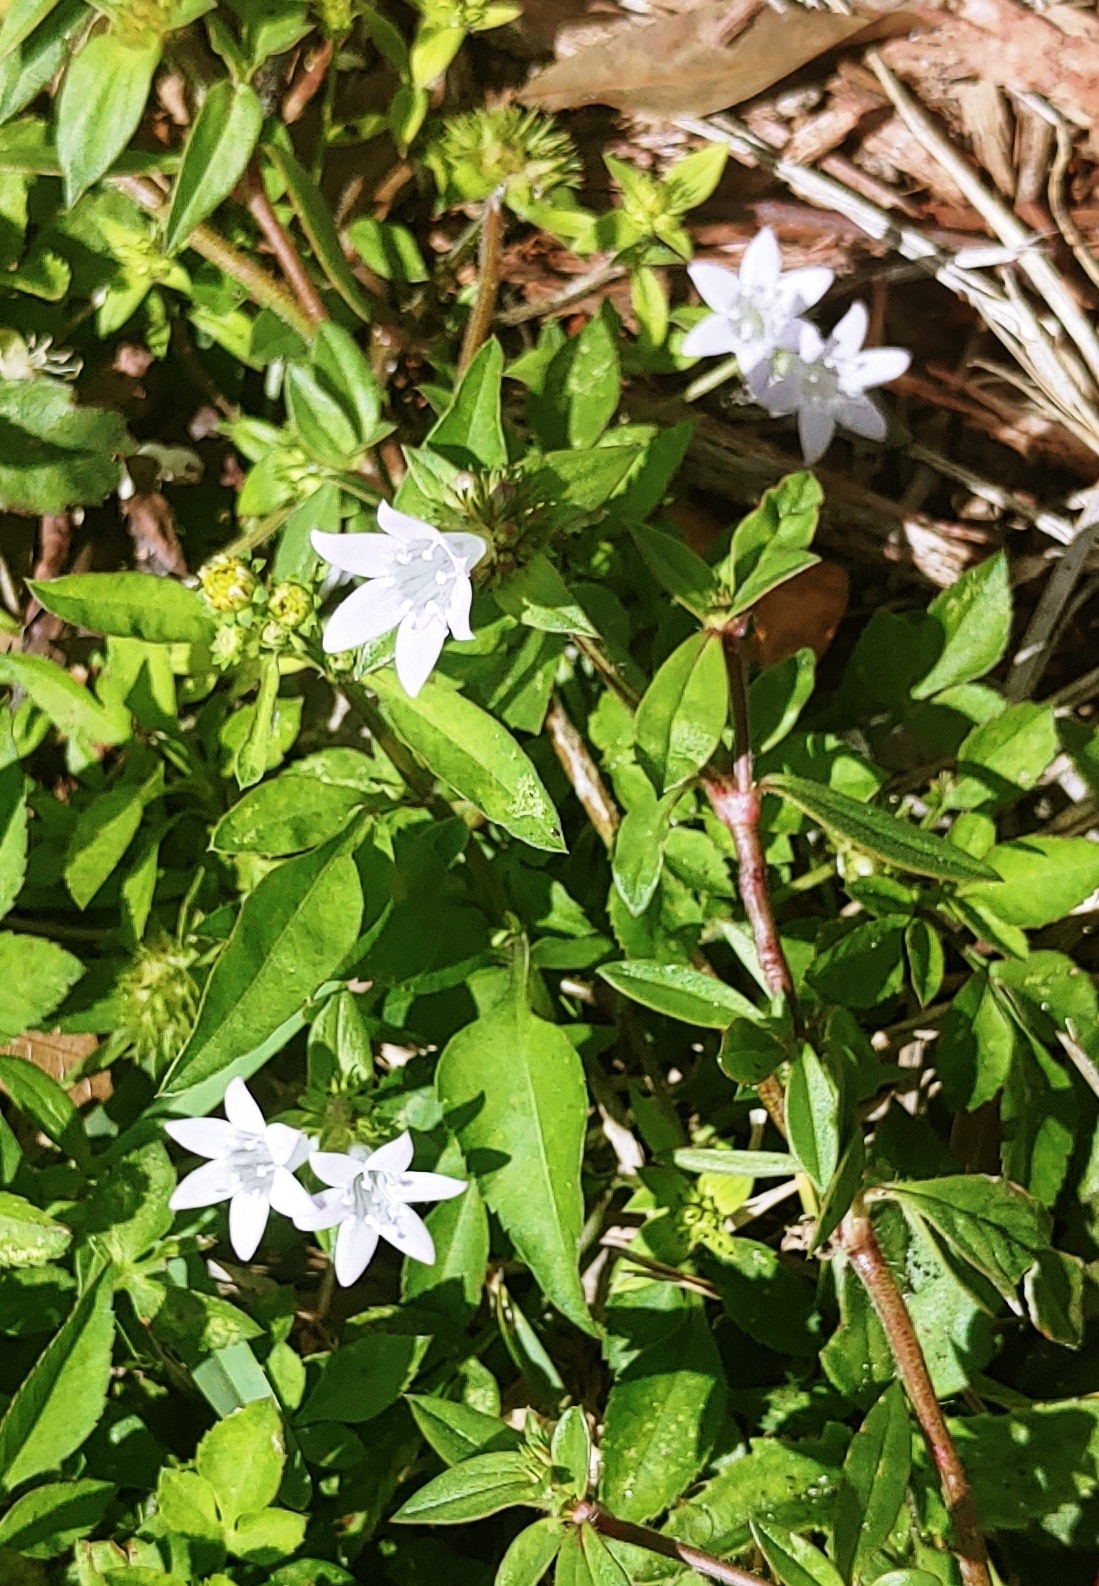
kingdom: Plantae
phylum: Tracheophyta
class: Magnoliopsida
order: Gentianales
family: Rubiaceae
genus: Richardia
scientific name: Richardia grandiflora
